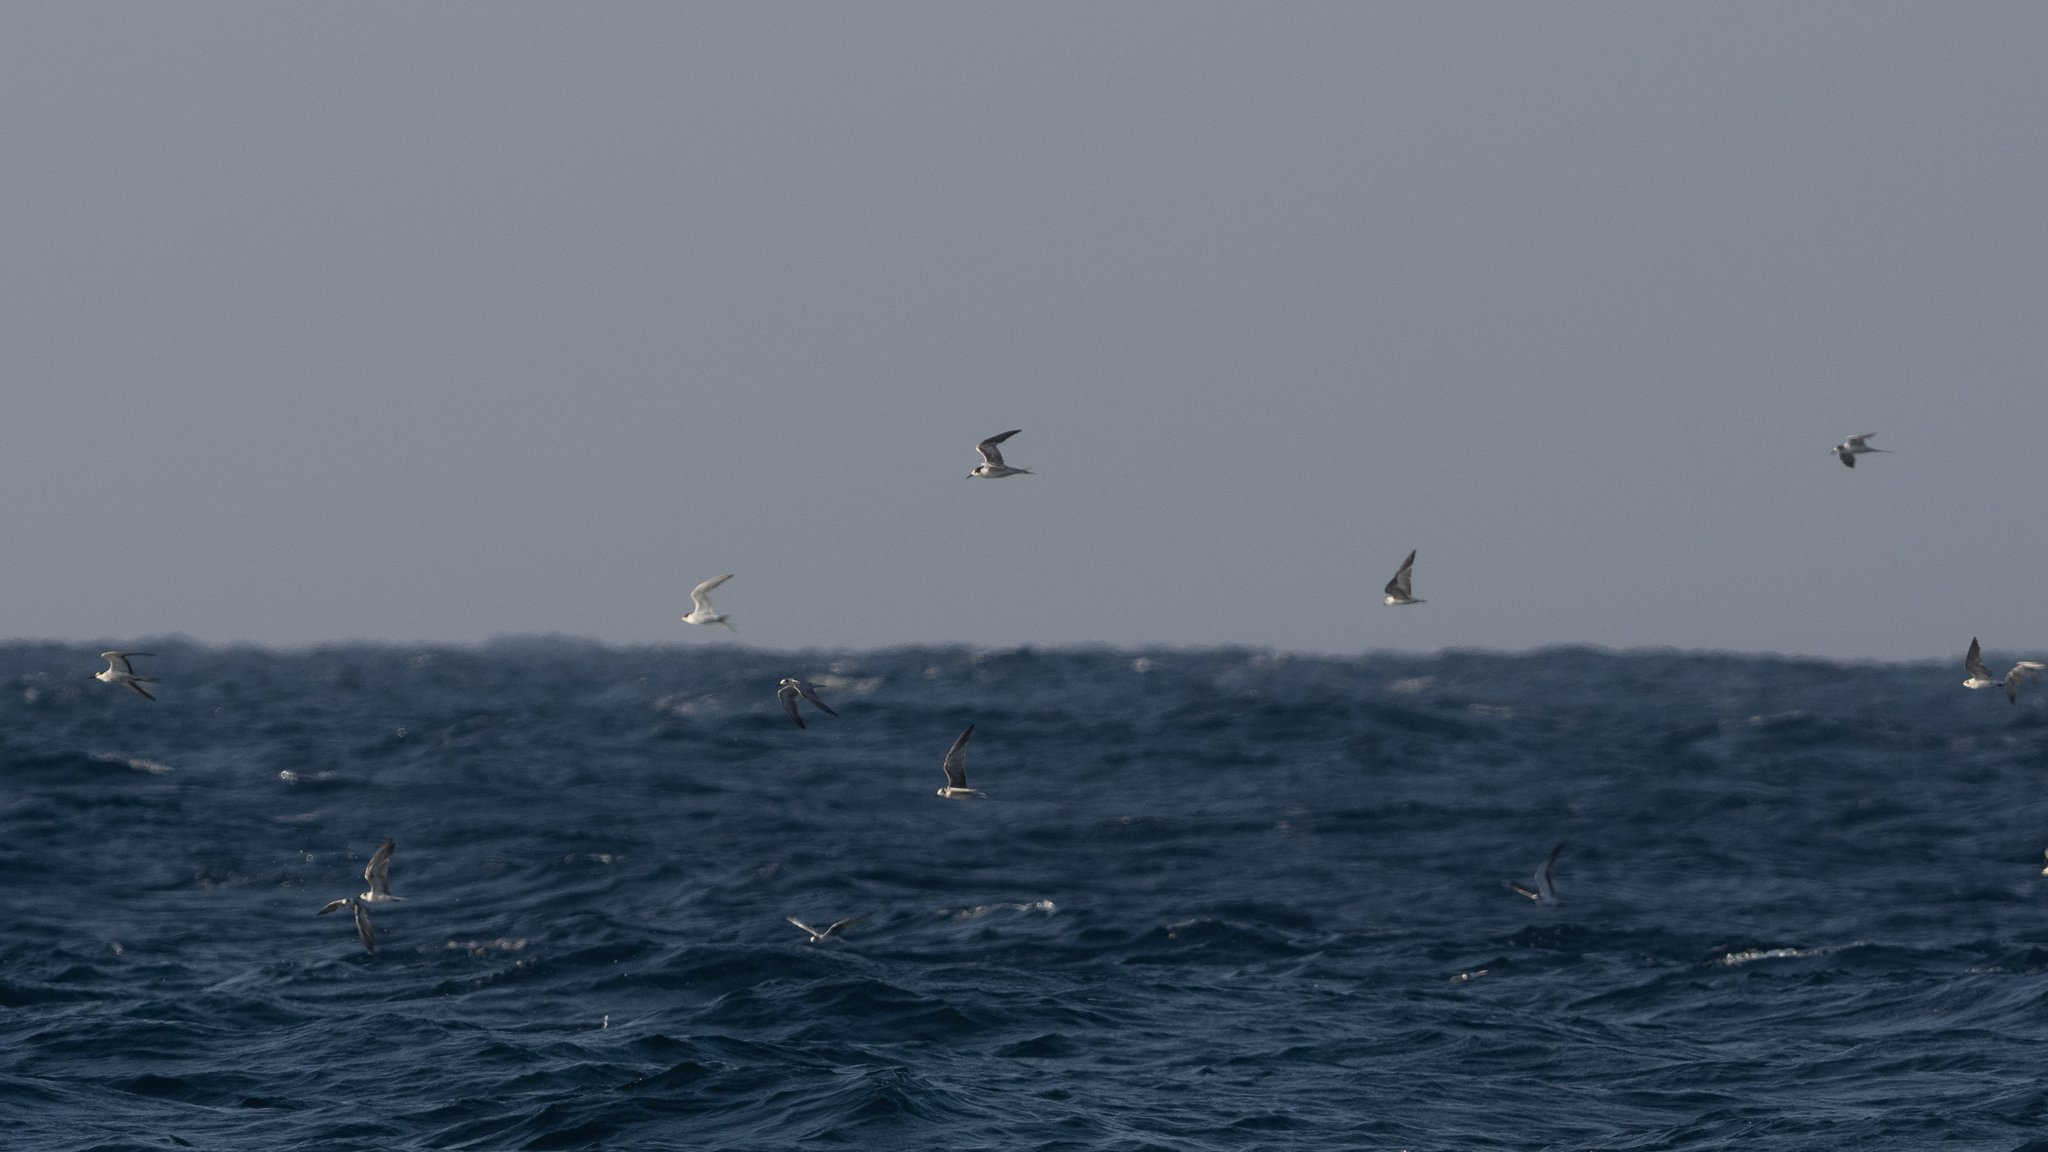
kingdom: Animalia
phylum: Chordata
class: Aves
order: Charadriiformes
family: Laridae
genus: Sterna
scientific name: Sterna hirundo
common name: Common tern
